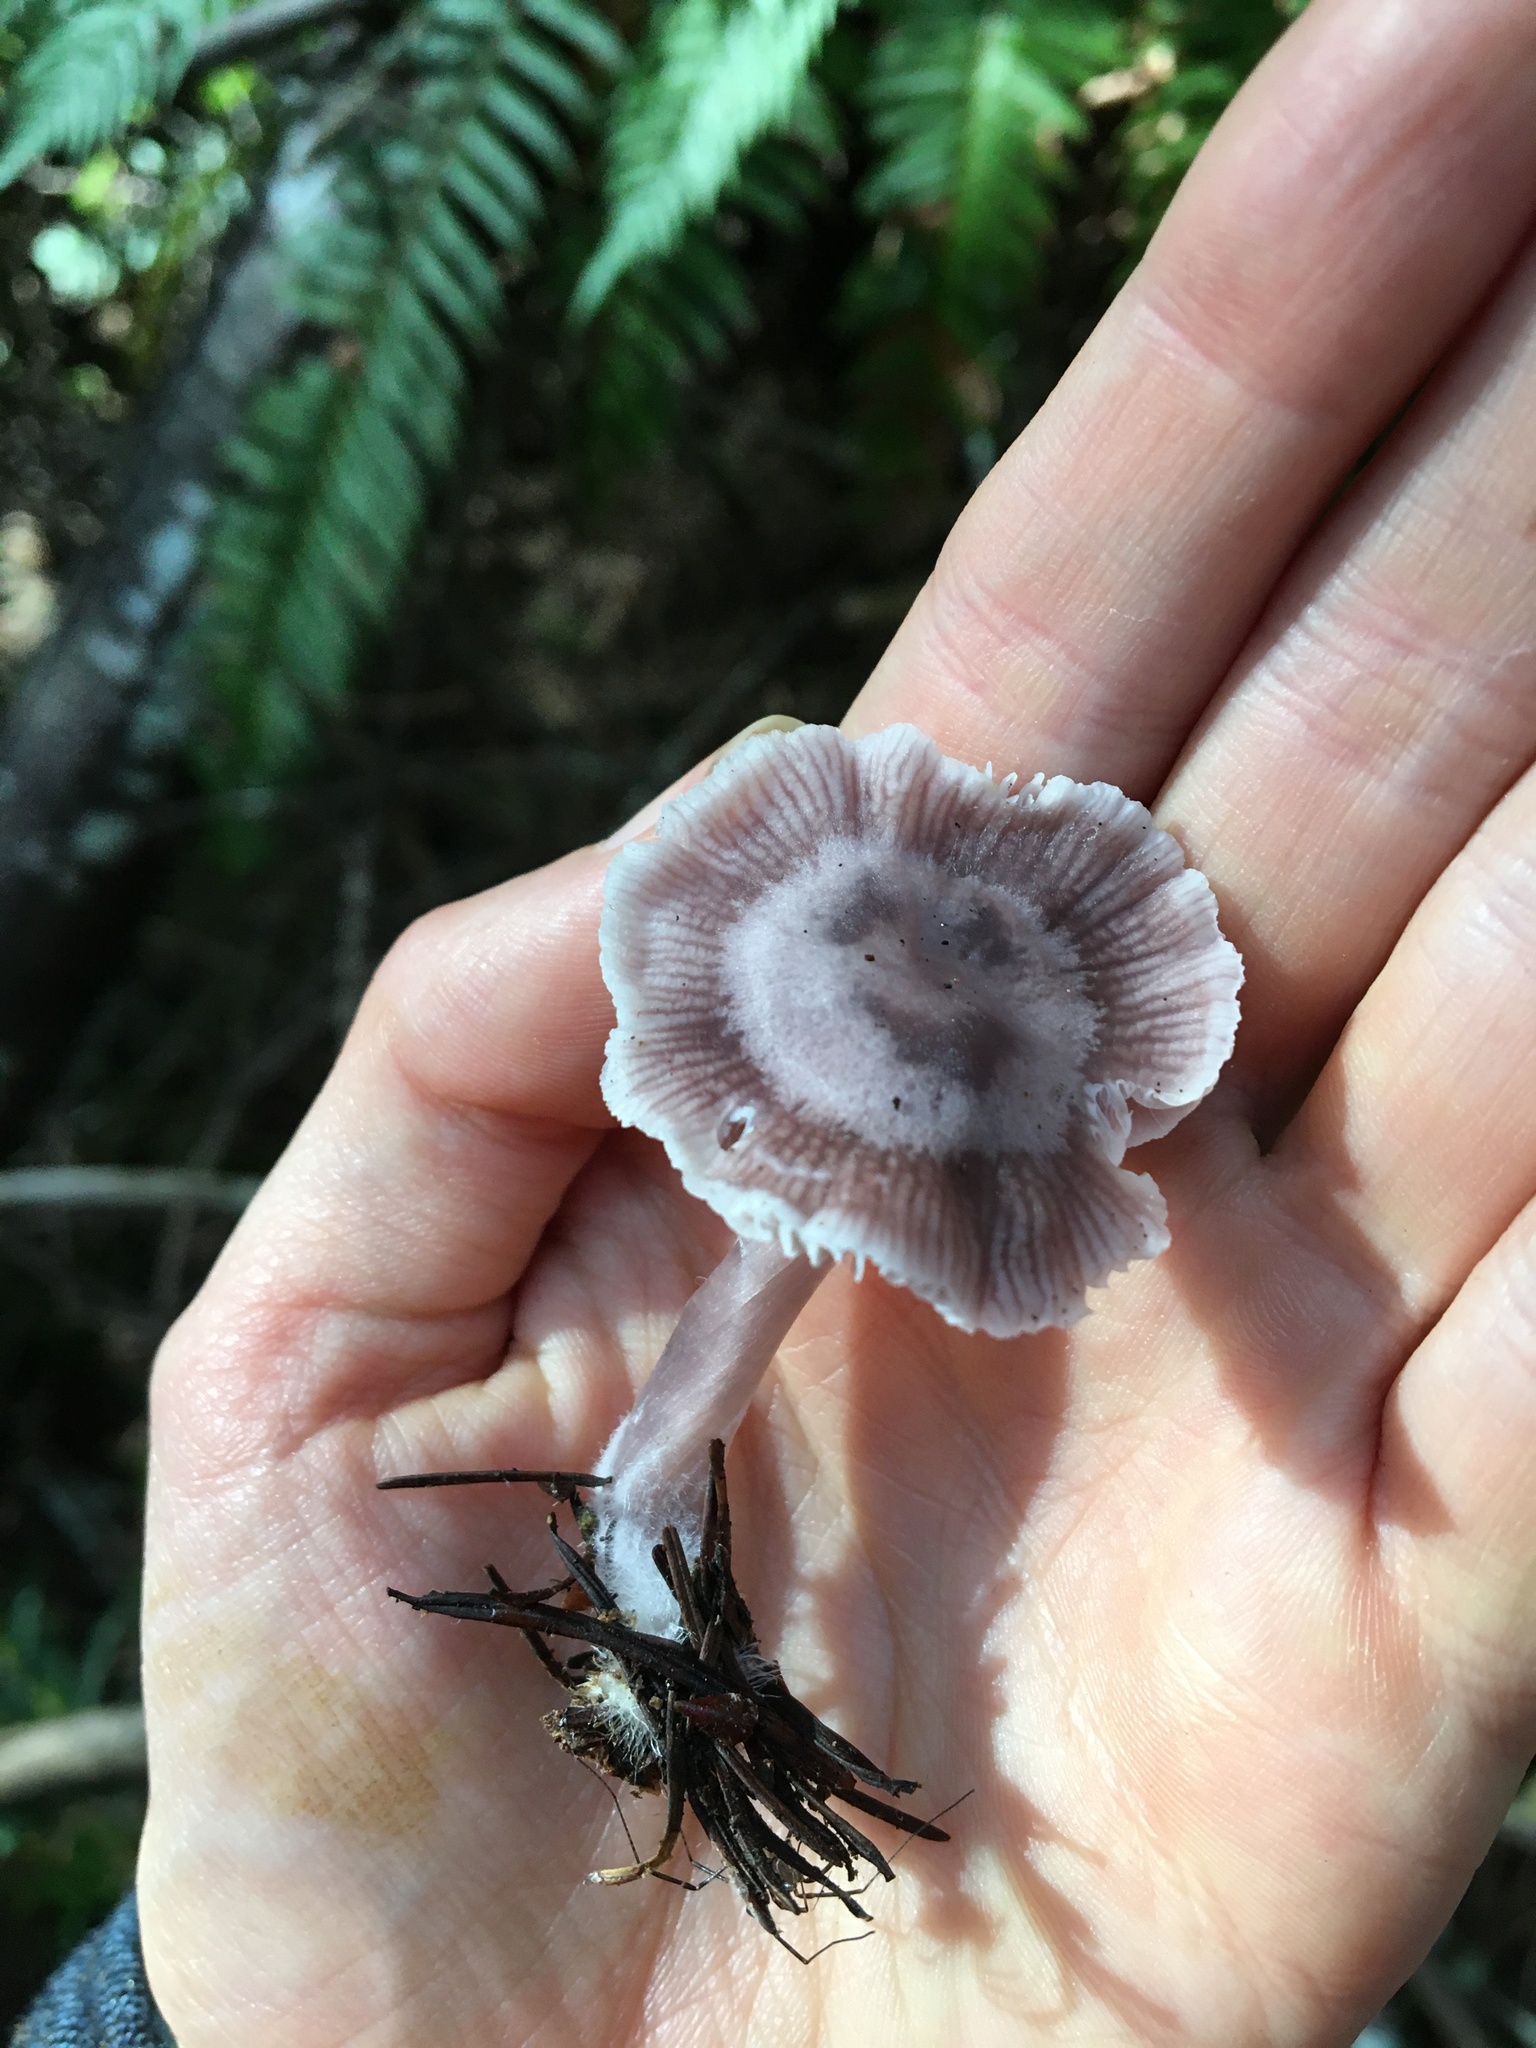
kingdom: Fungi
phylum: Basidiomycota
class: Agaricomycetes
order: Agaricales
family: Mycenaceae
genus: Mycena
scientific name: Mycena pura
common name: Lilac bonnet
